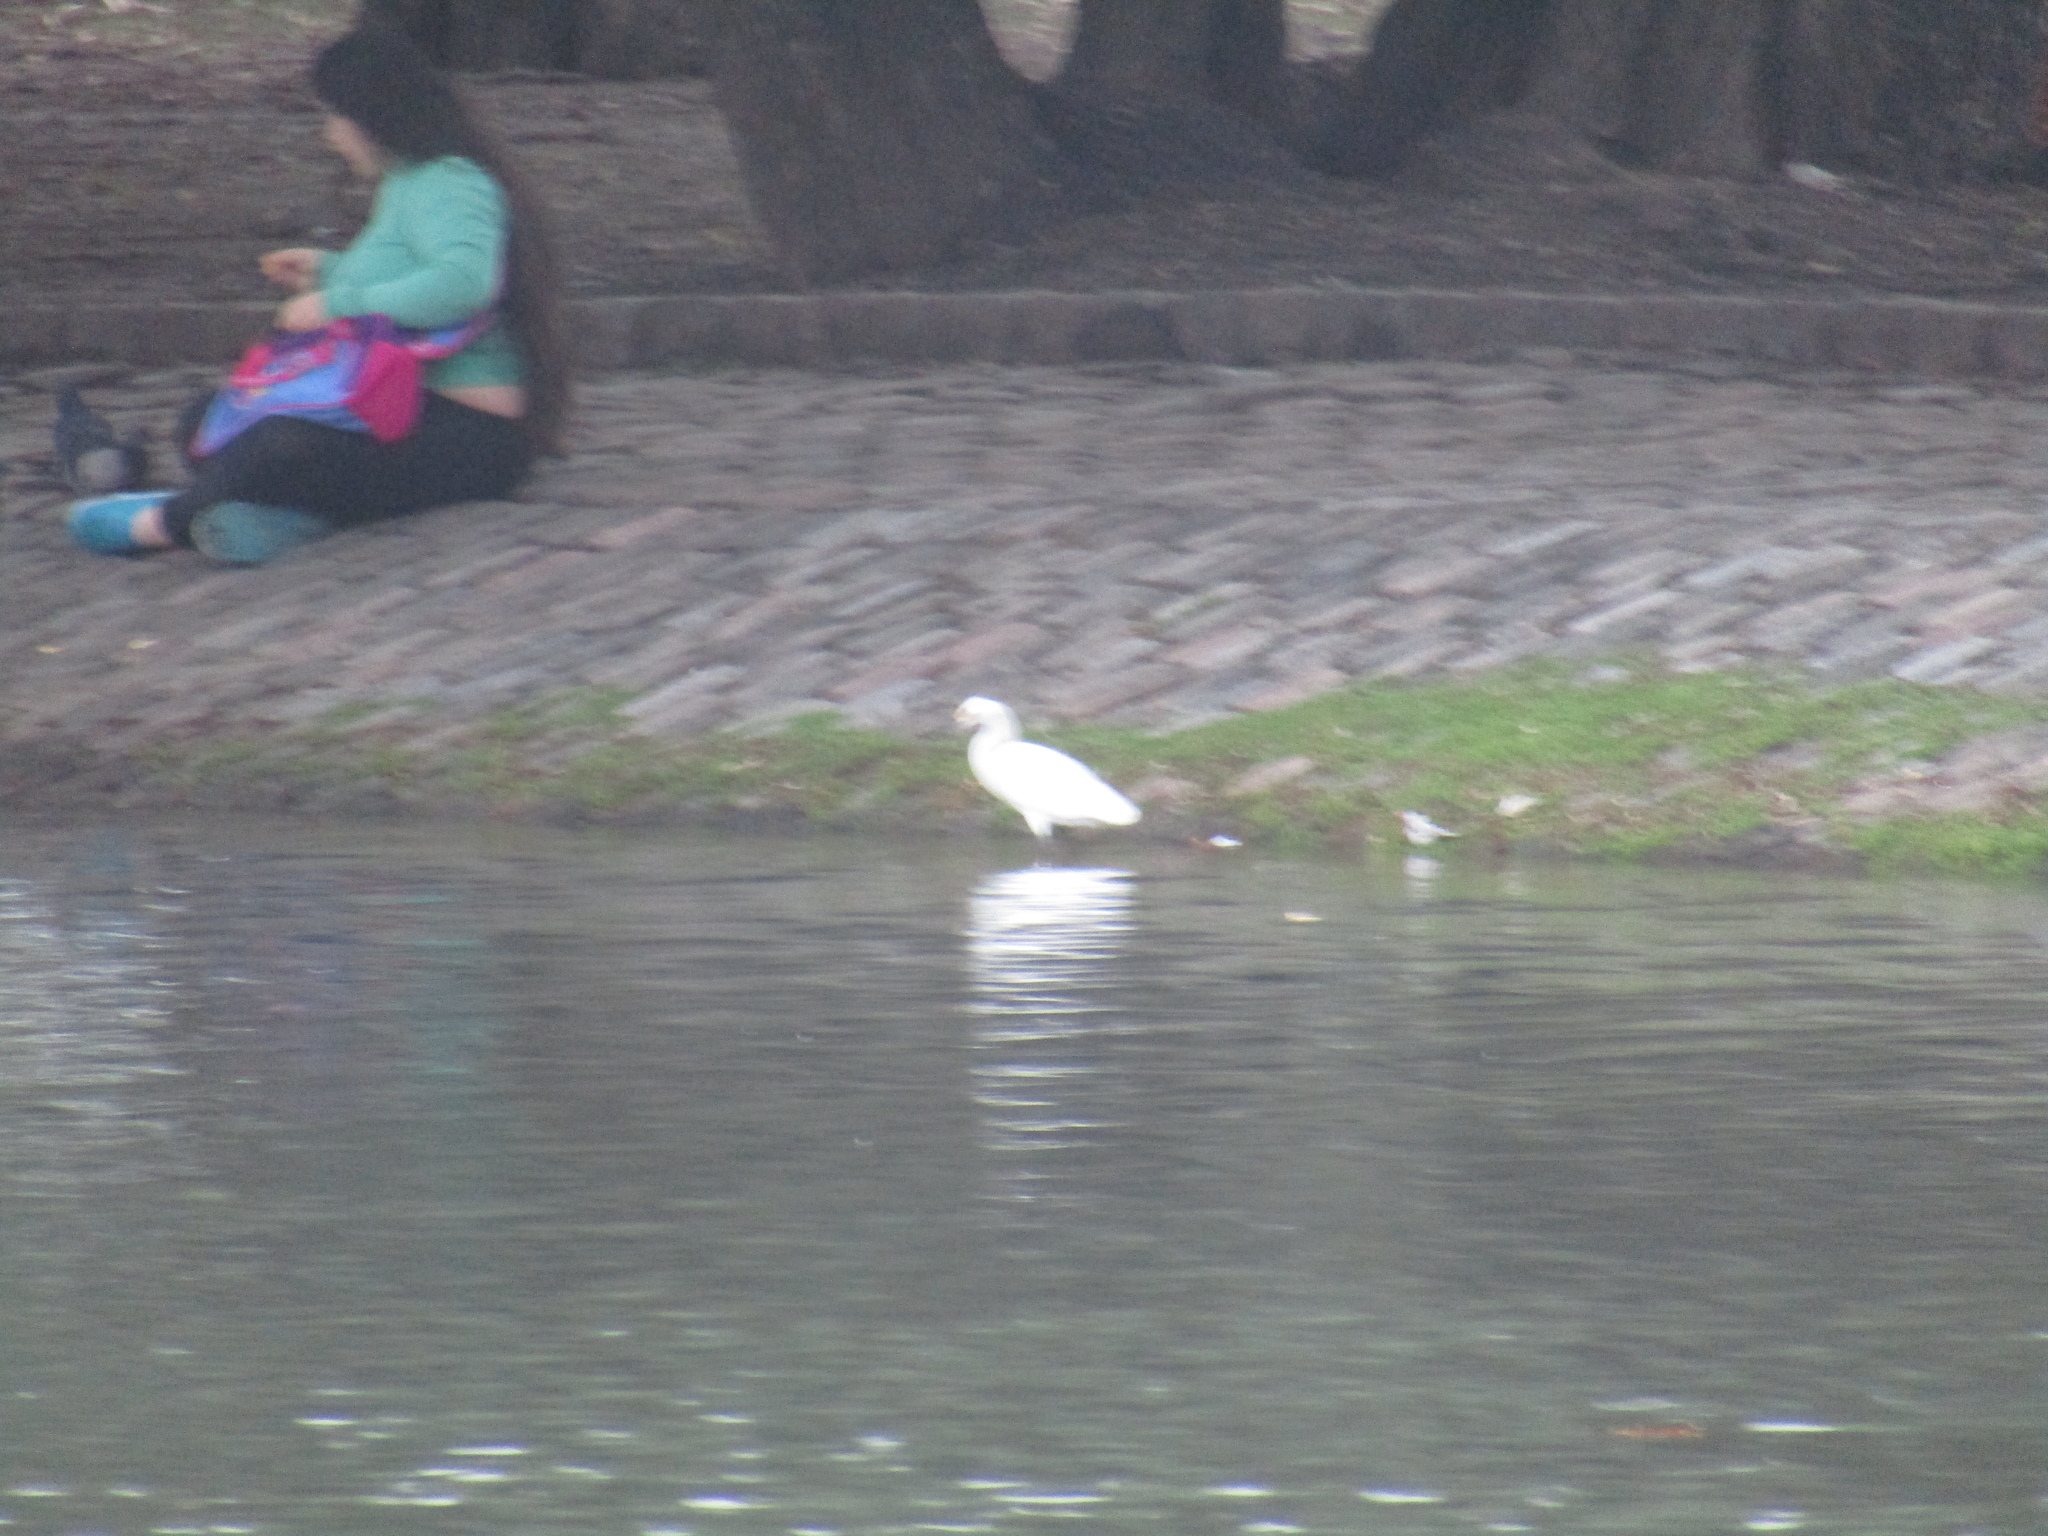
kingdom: Animalia
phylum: Chordata
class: Aves
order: Pelecaniformes
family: Ardeidae
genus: Egretta
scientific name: Egretta thula
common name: Snowy egret
